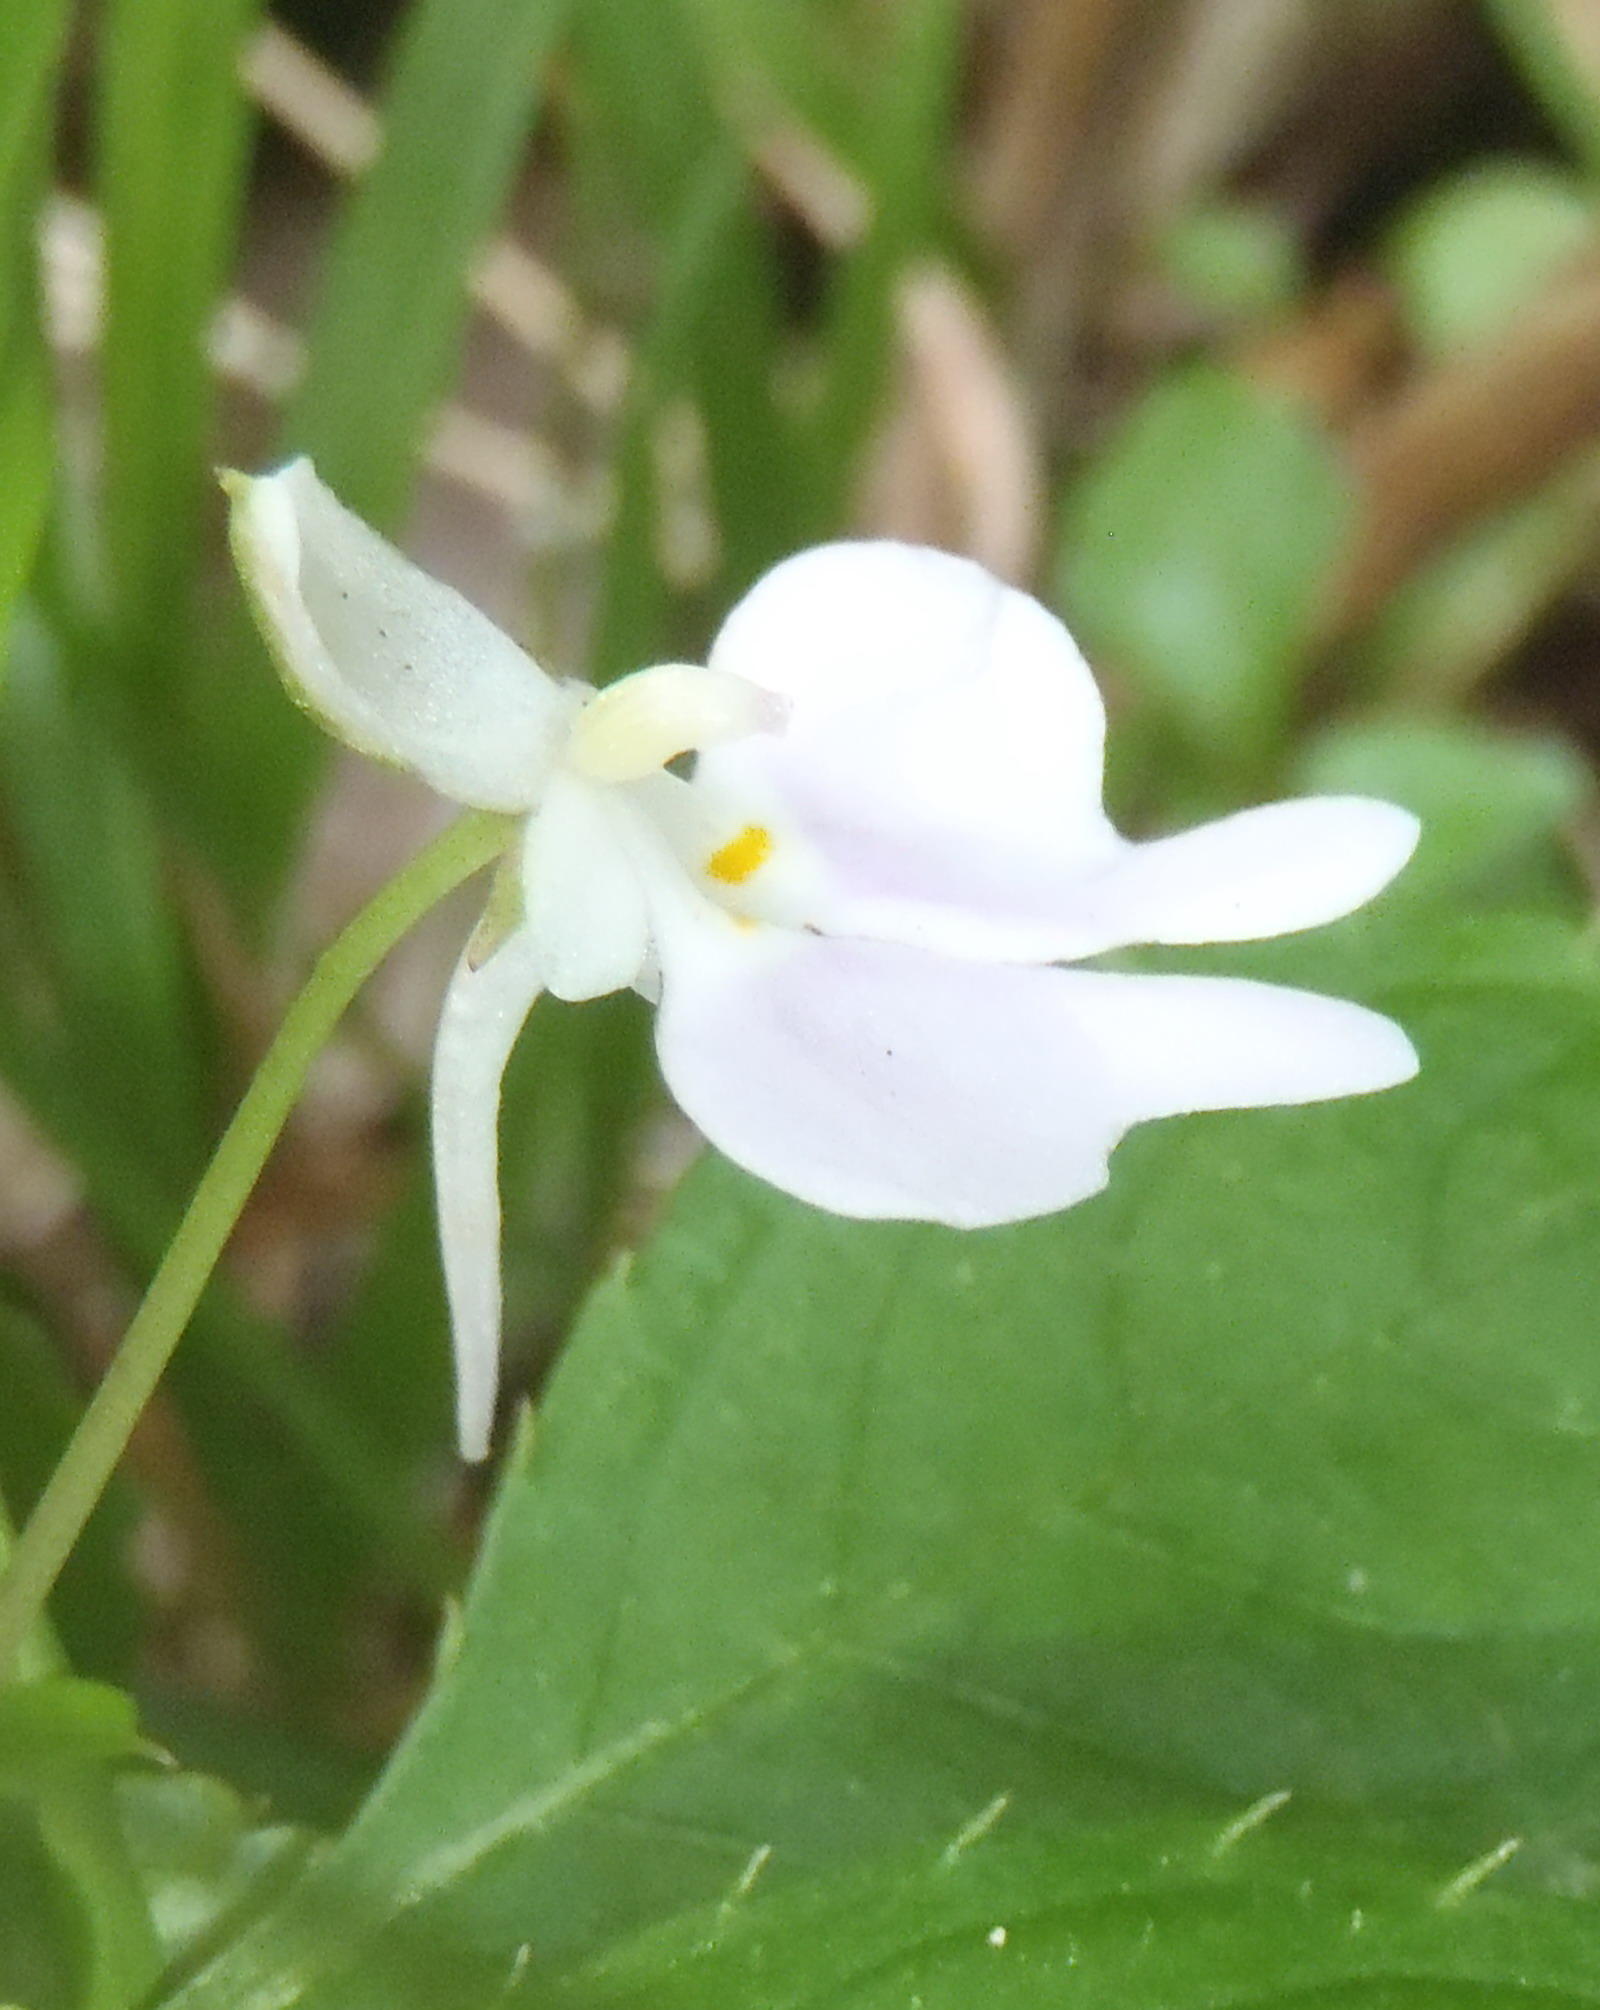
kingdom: Plantae
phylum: Tracheophyta
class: Magnoliopsida
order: Ericales
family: Balsaminaceae
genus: Impatiens
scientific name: Impatiens hochstetteri
